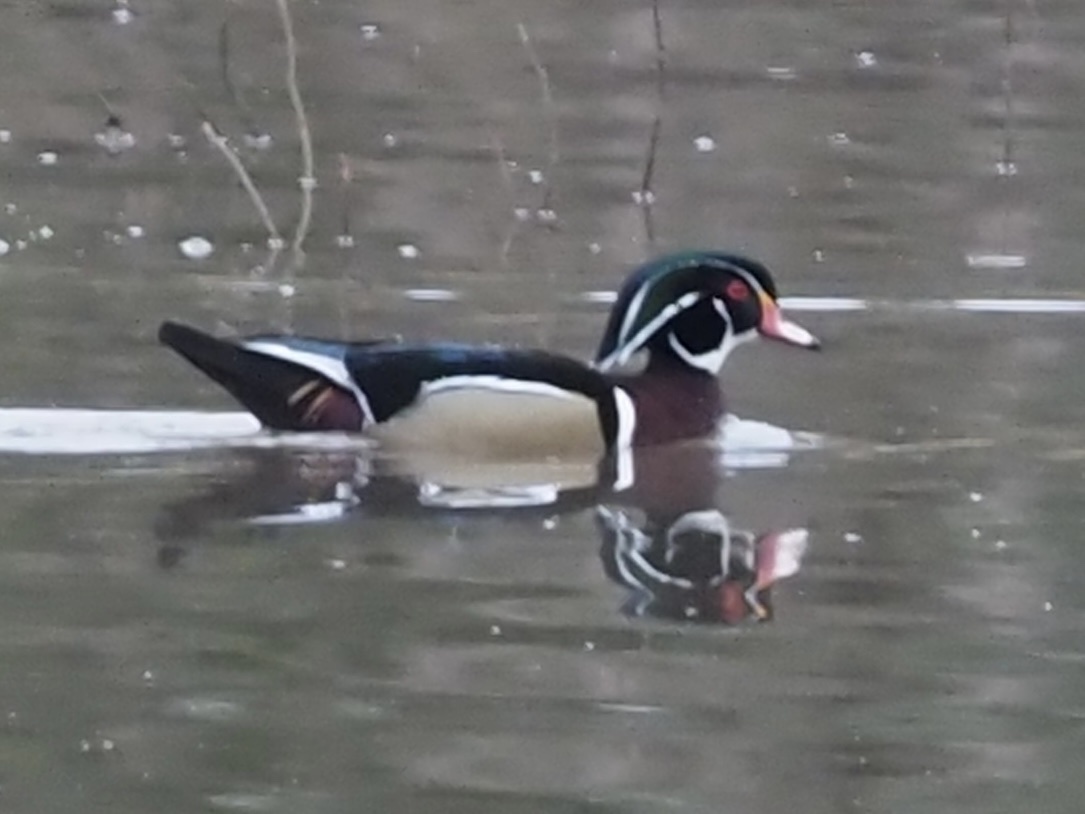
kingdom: Animalia
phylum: Chordata
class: Aves
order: Anseriformes
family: Anatidae
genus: Aix
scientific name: Aix sponsa
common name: Wood duck
